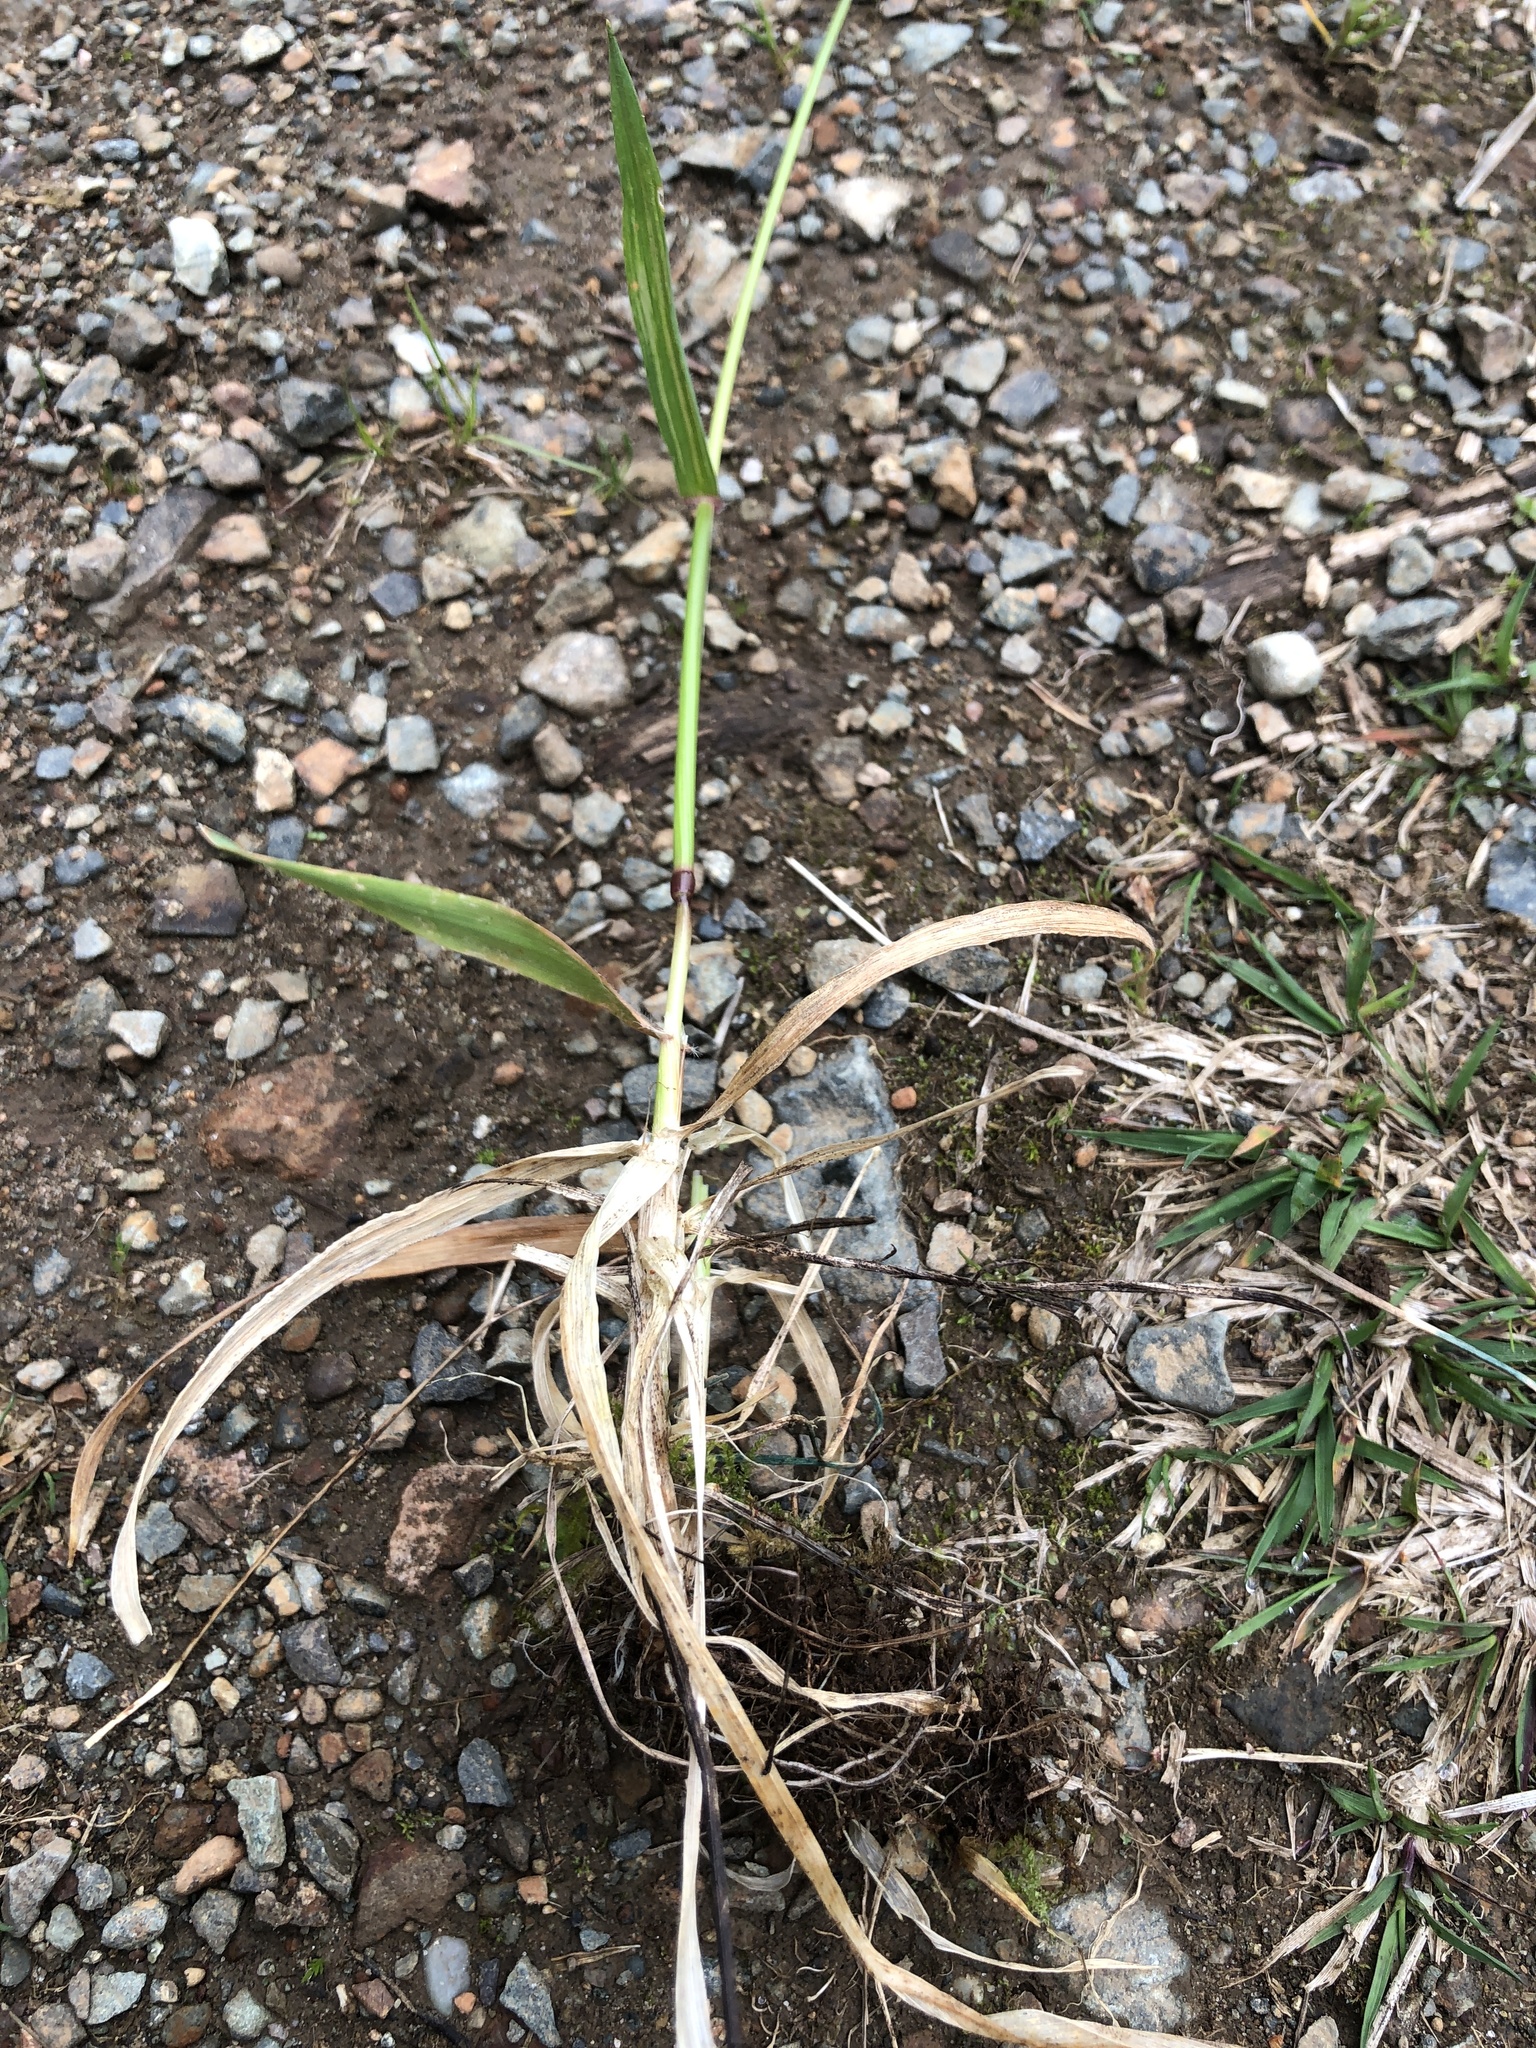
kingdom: Plantae
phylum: Tracheophyta
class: Liliopsida
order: Poales
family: Poaceae
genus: Anthoxanthum
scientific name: Anthoxanthum odoratum
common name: Sweet vernalgrass
